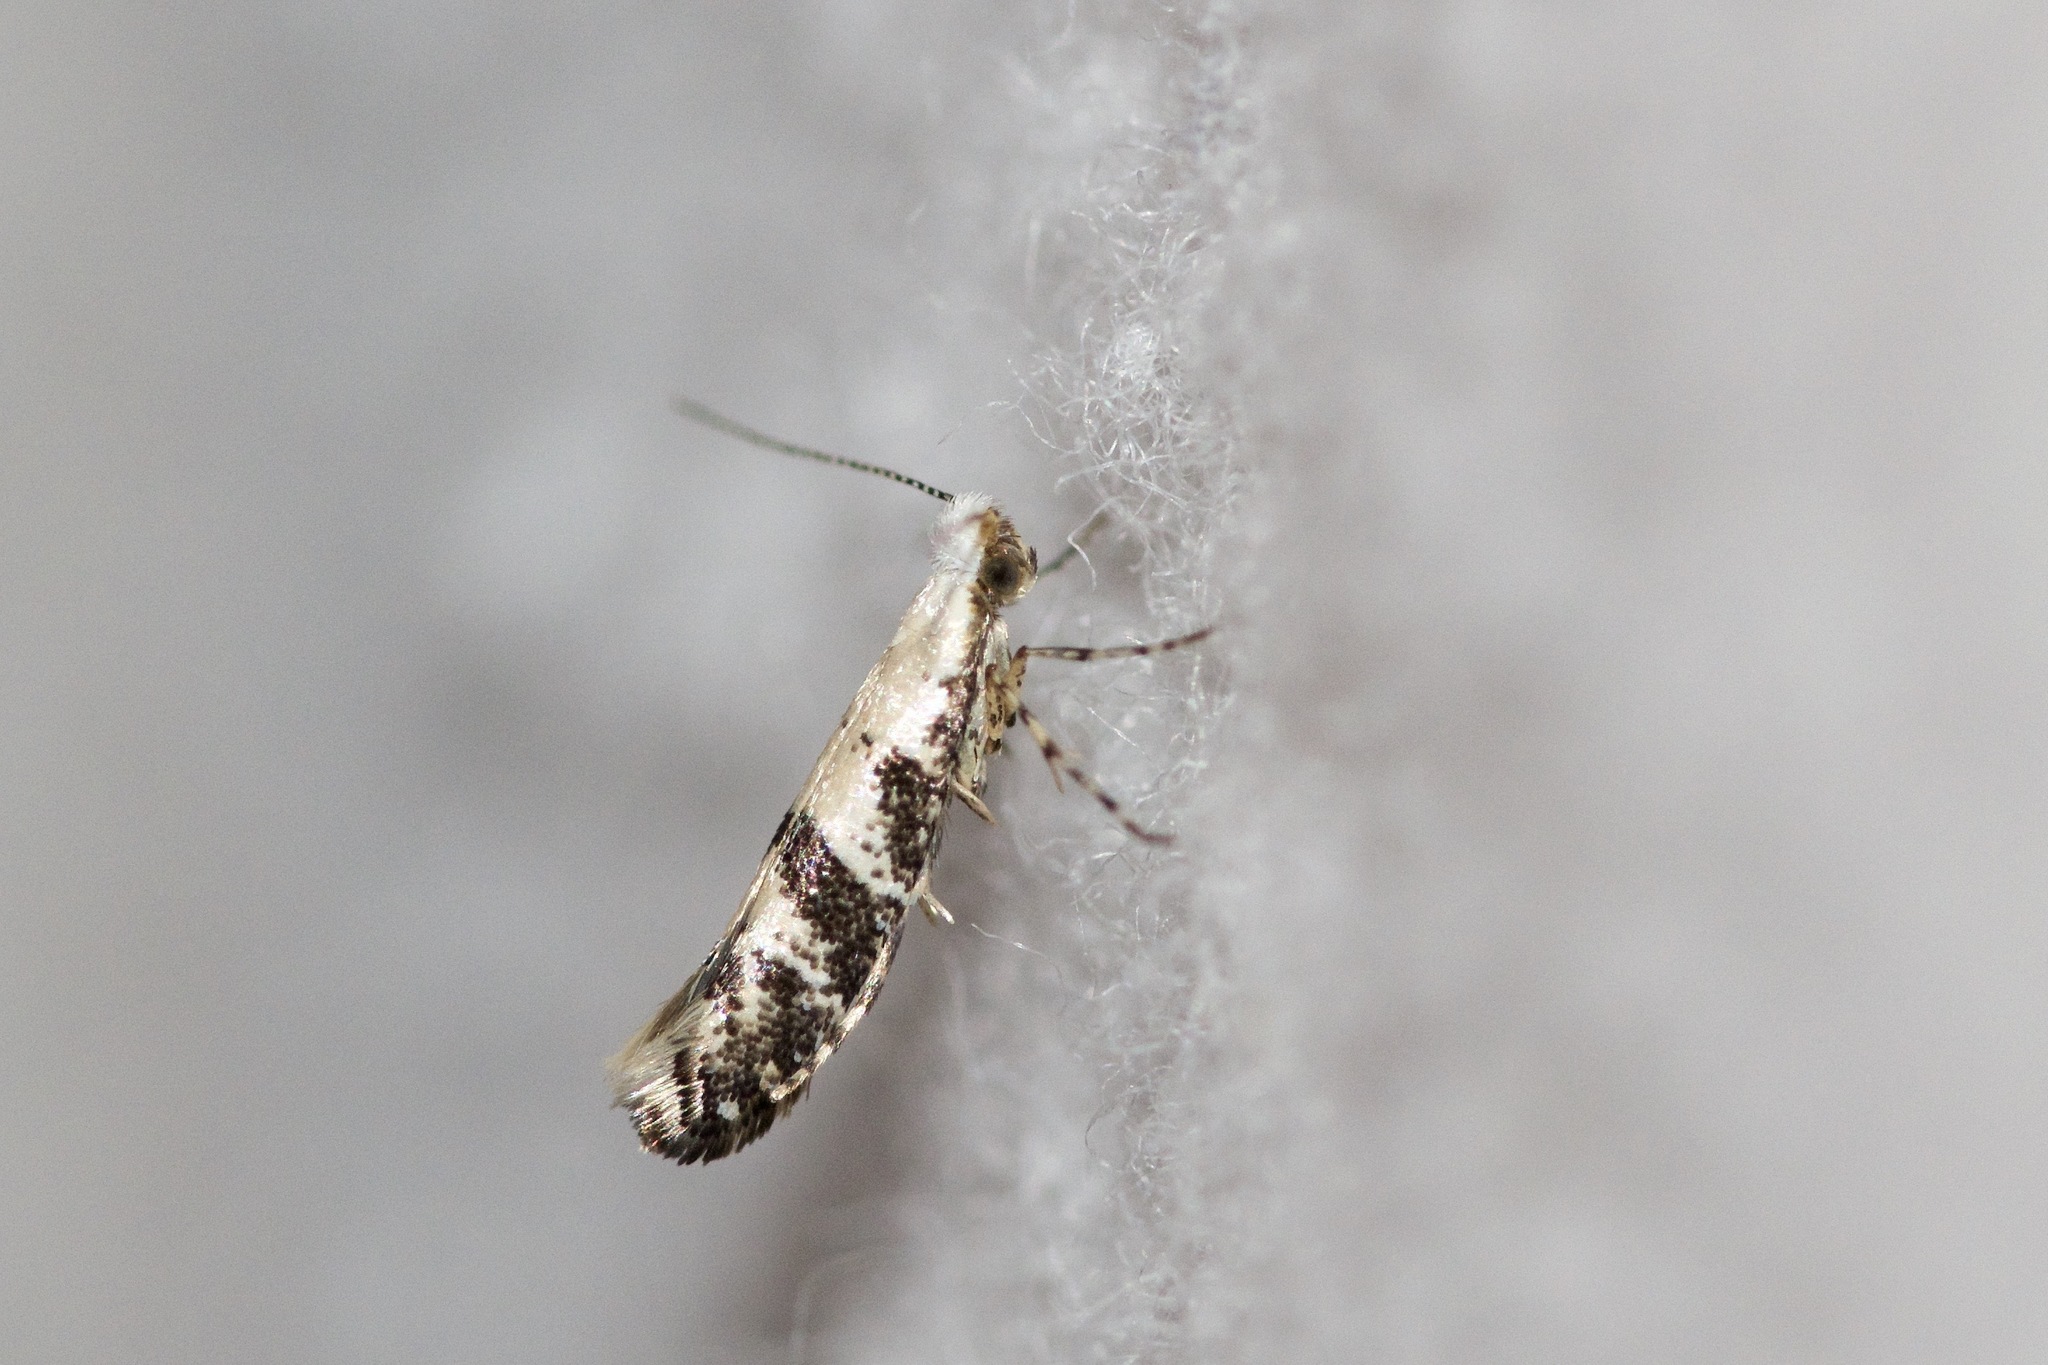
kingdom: Animalia
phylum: Arthropoda
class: Insecta
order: Lepidoptera
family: Argyresthiidae
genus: Argyresthia
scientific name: Argyresthia austerella
